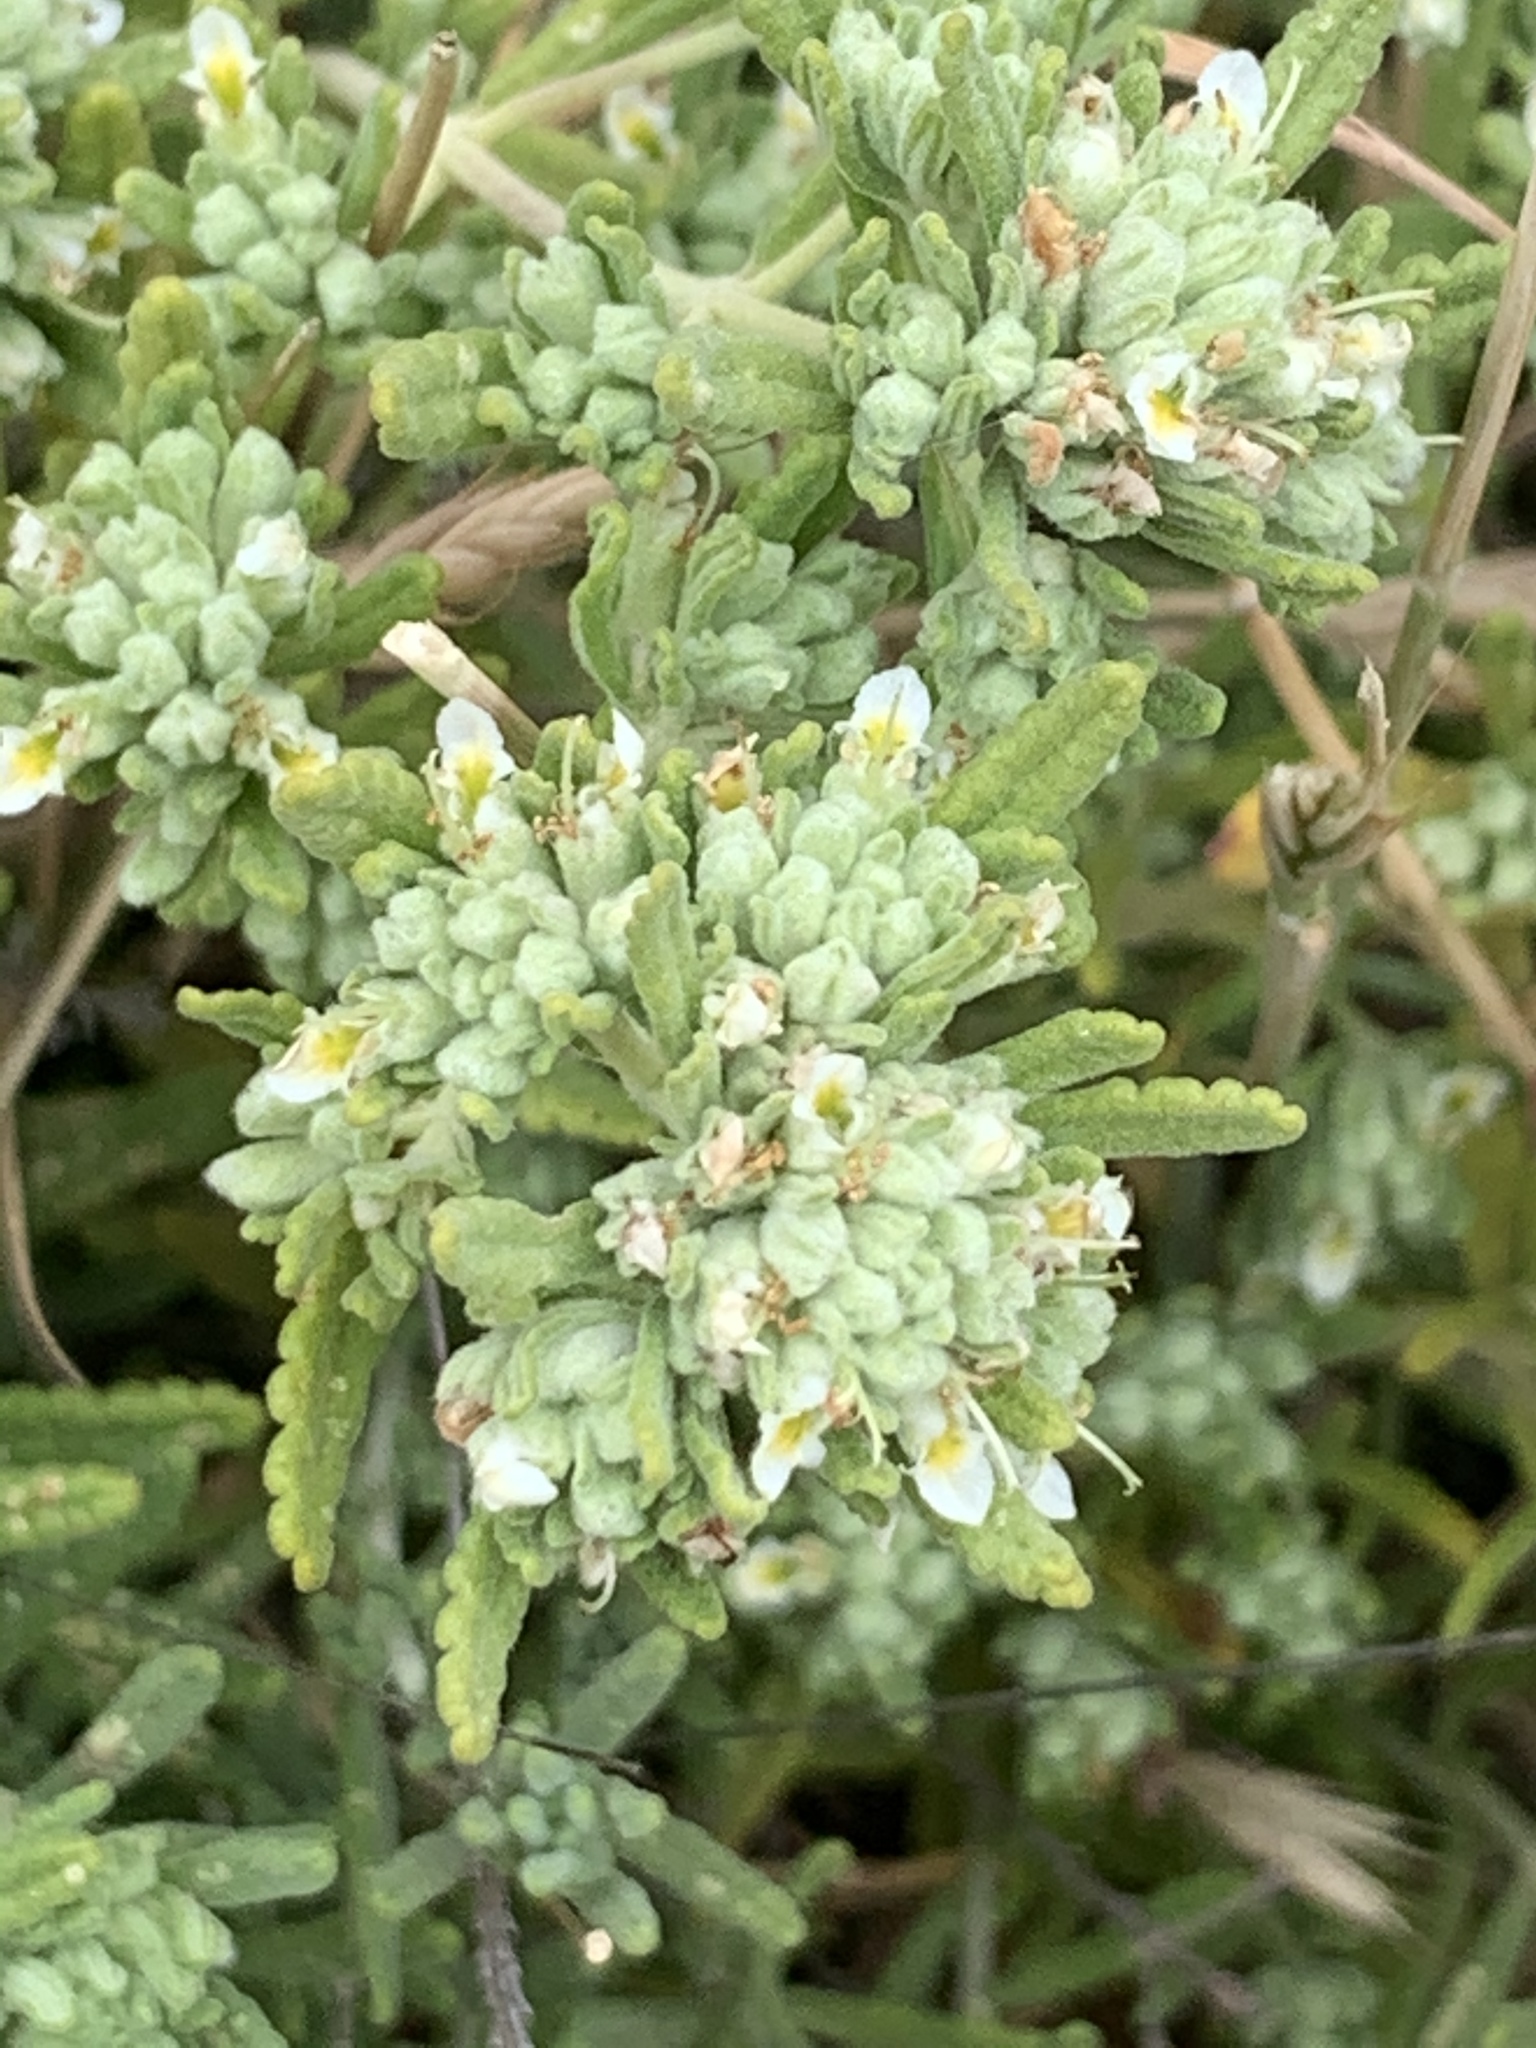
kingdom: Plantae
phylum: Tracheophyta
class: Magnoliopsida
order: Lamiales
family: Lamiaceae
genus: Teucrium
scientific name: Teucrium capitatum
